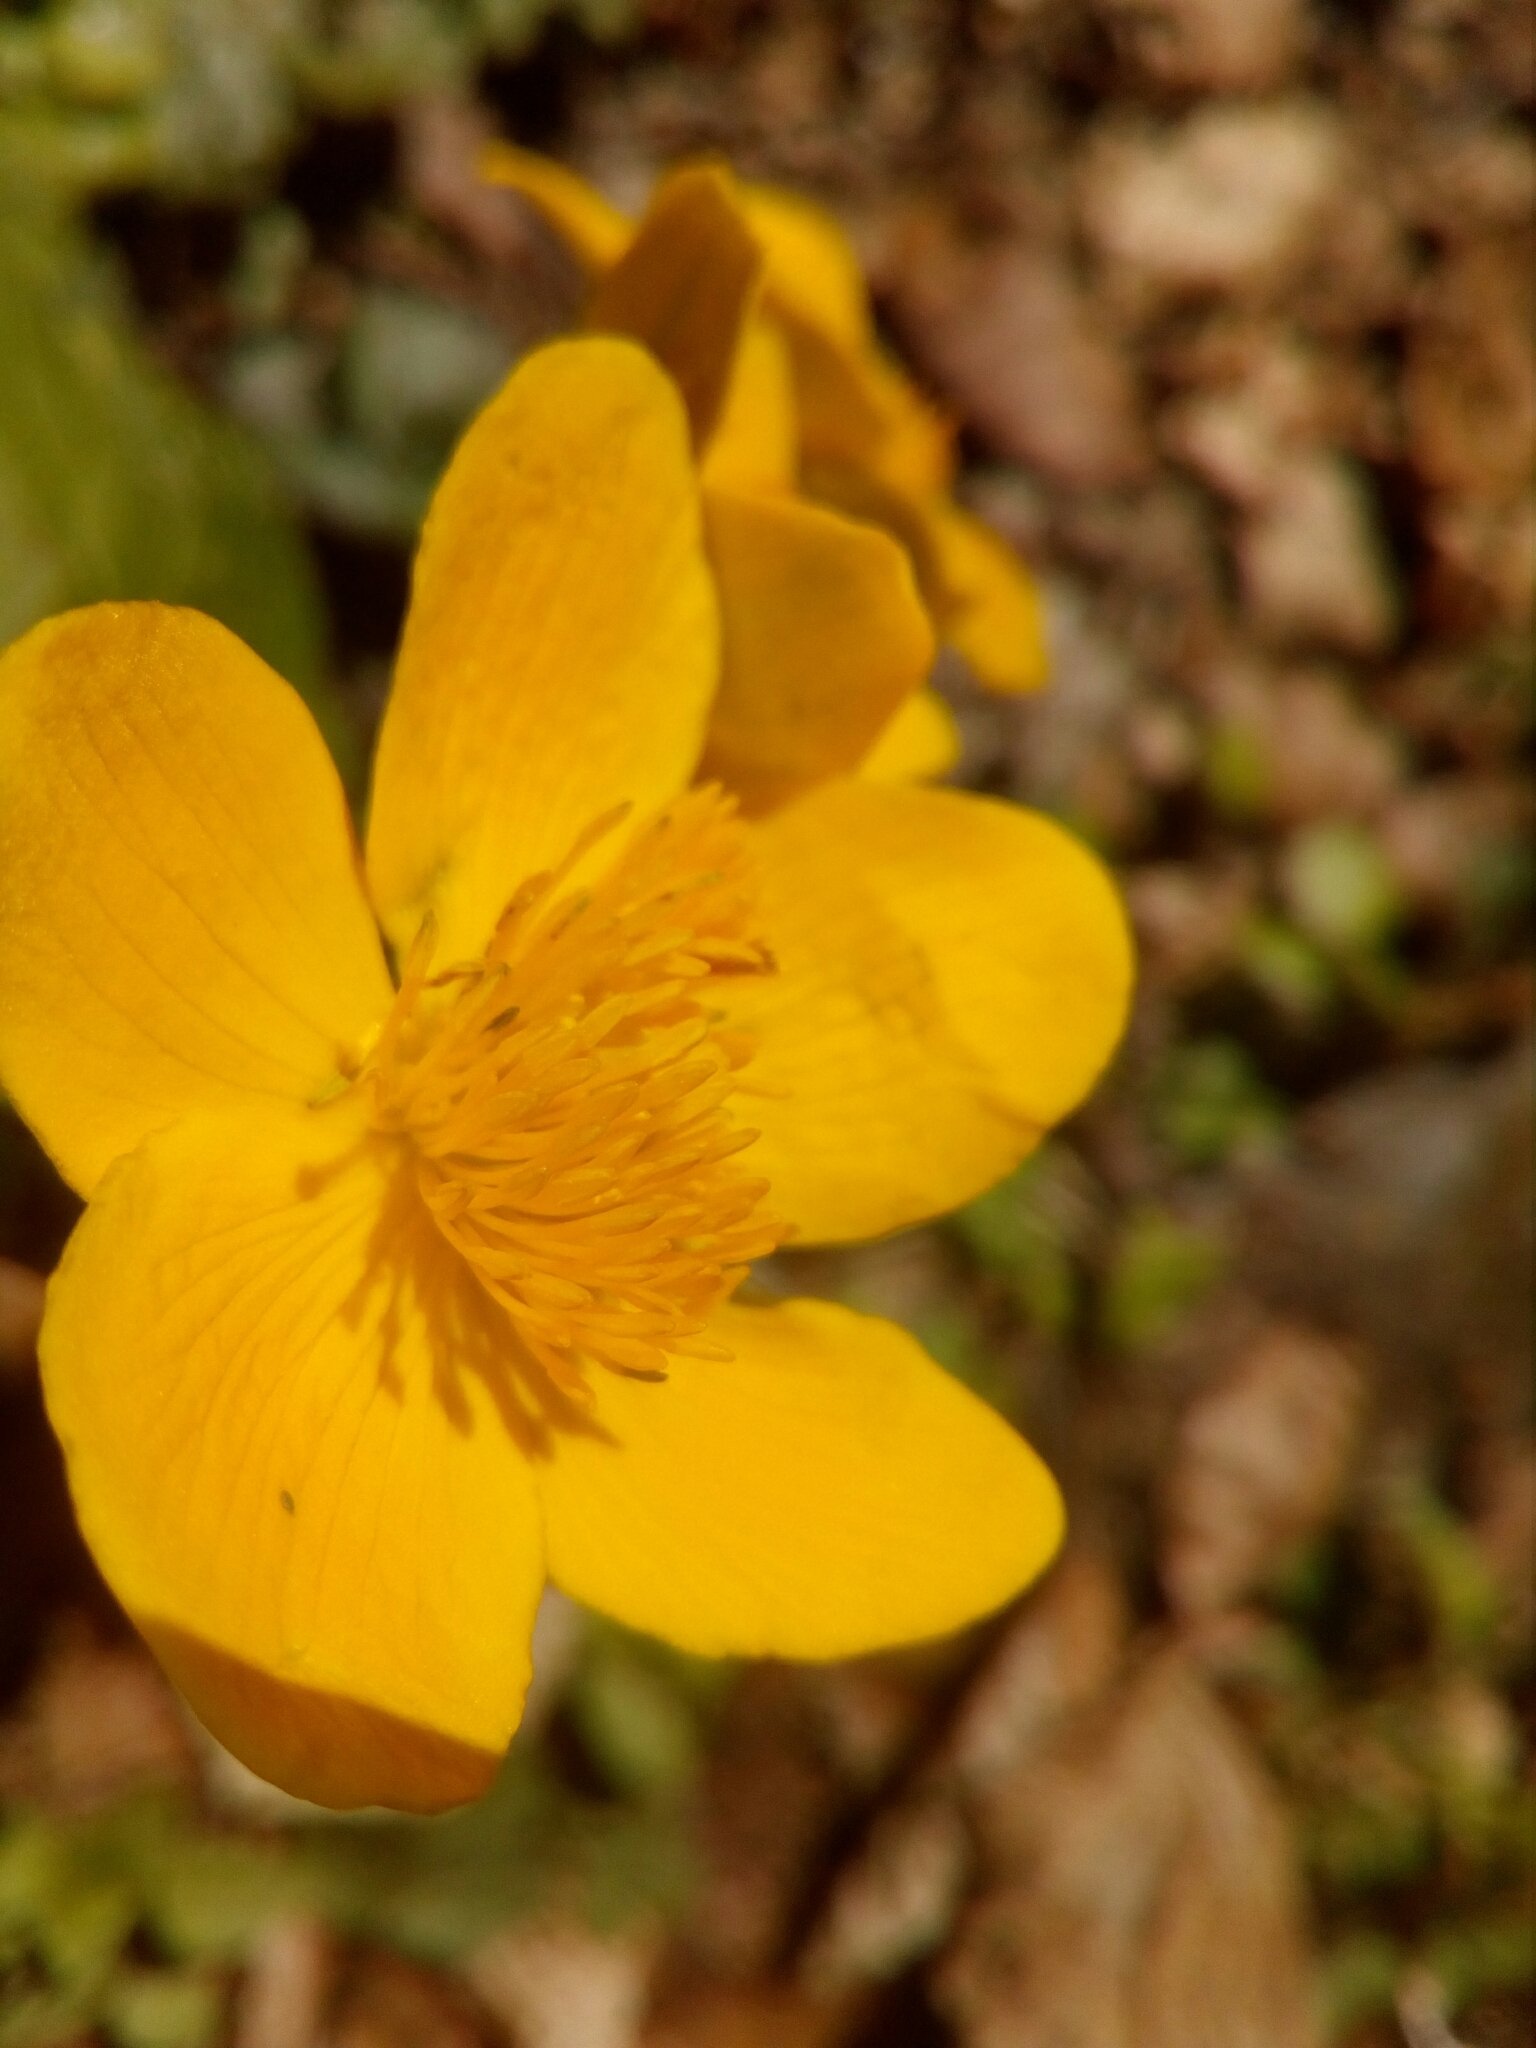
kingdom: Plantae
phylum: Tracheophyta
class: Magnoliopsida
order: Ranunculales
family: Ranunculaceae
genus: Caltha
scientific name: Caltha palustris
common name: Marsh marigold
